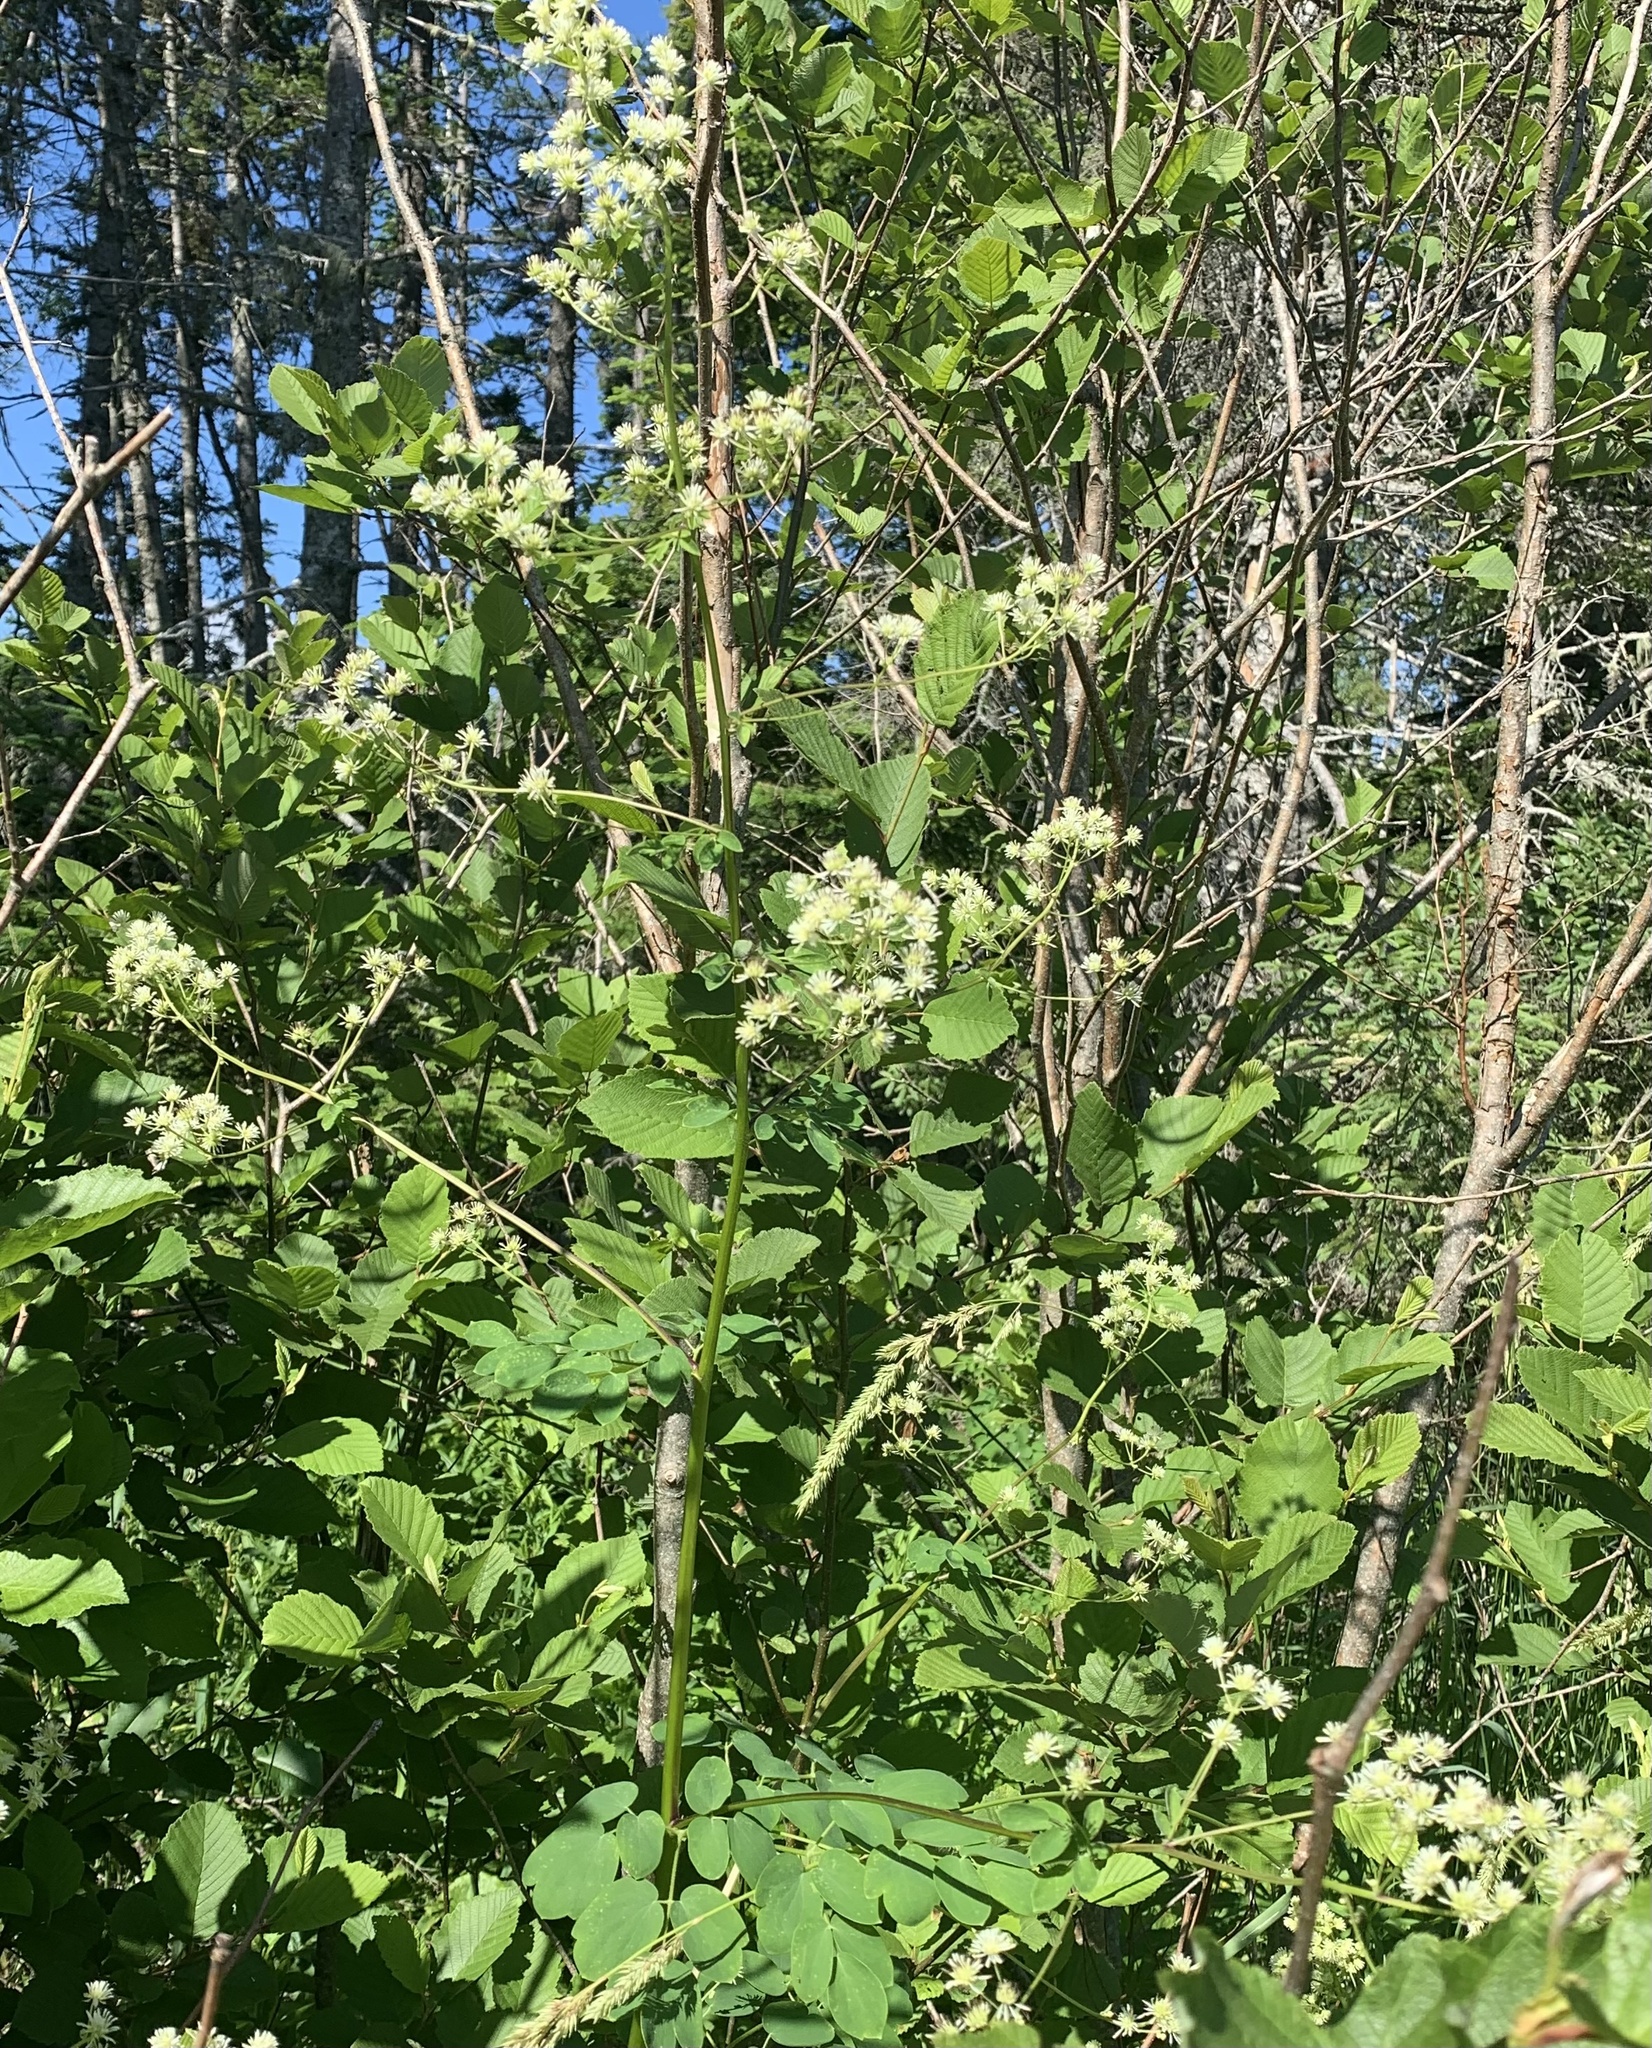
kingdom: Plantae
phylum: Tracheophyta
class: Magnoliopsida
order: Ranunculales
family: Ranunculaceae
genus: Thalictrum
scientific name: Thalictrum pubescens
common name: King-of-the-meadow
